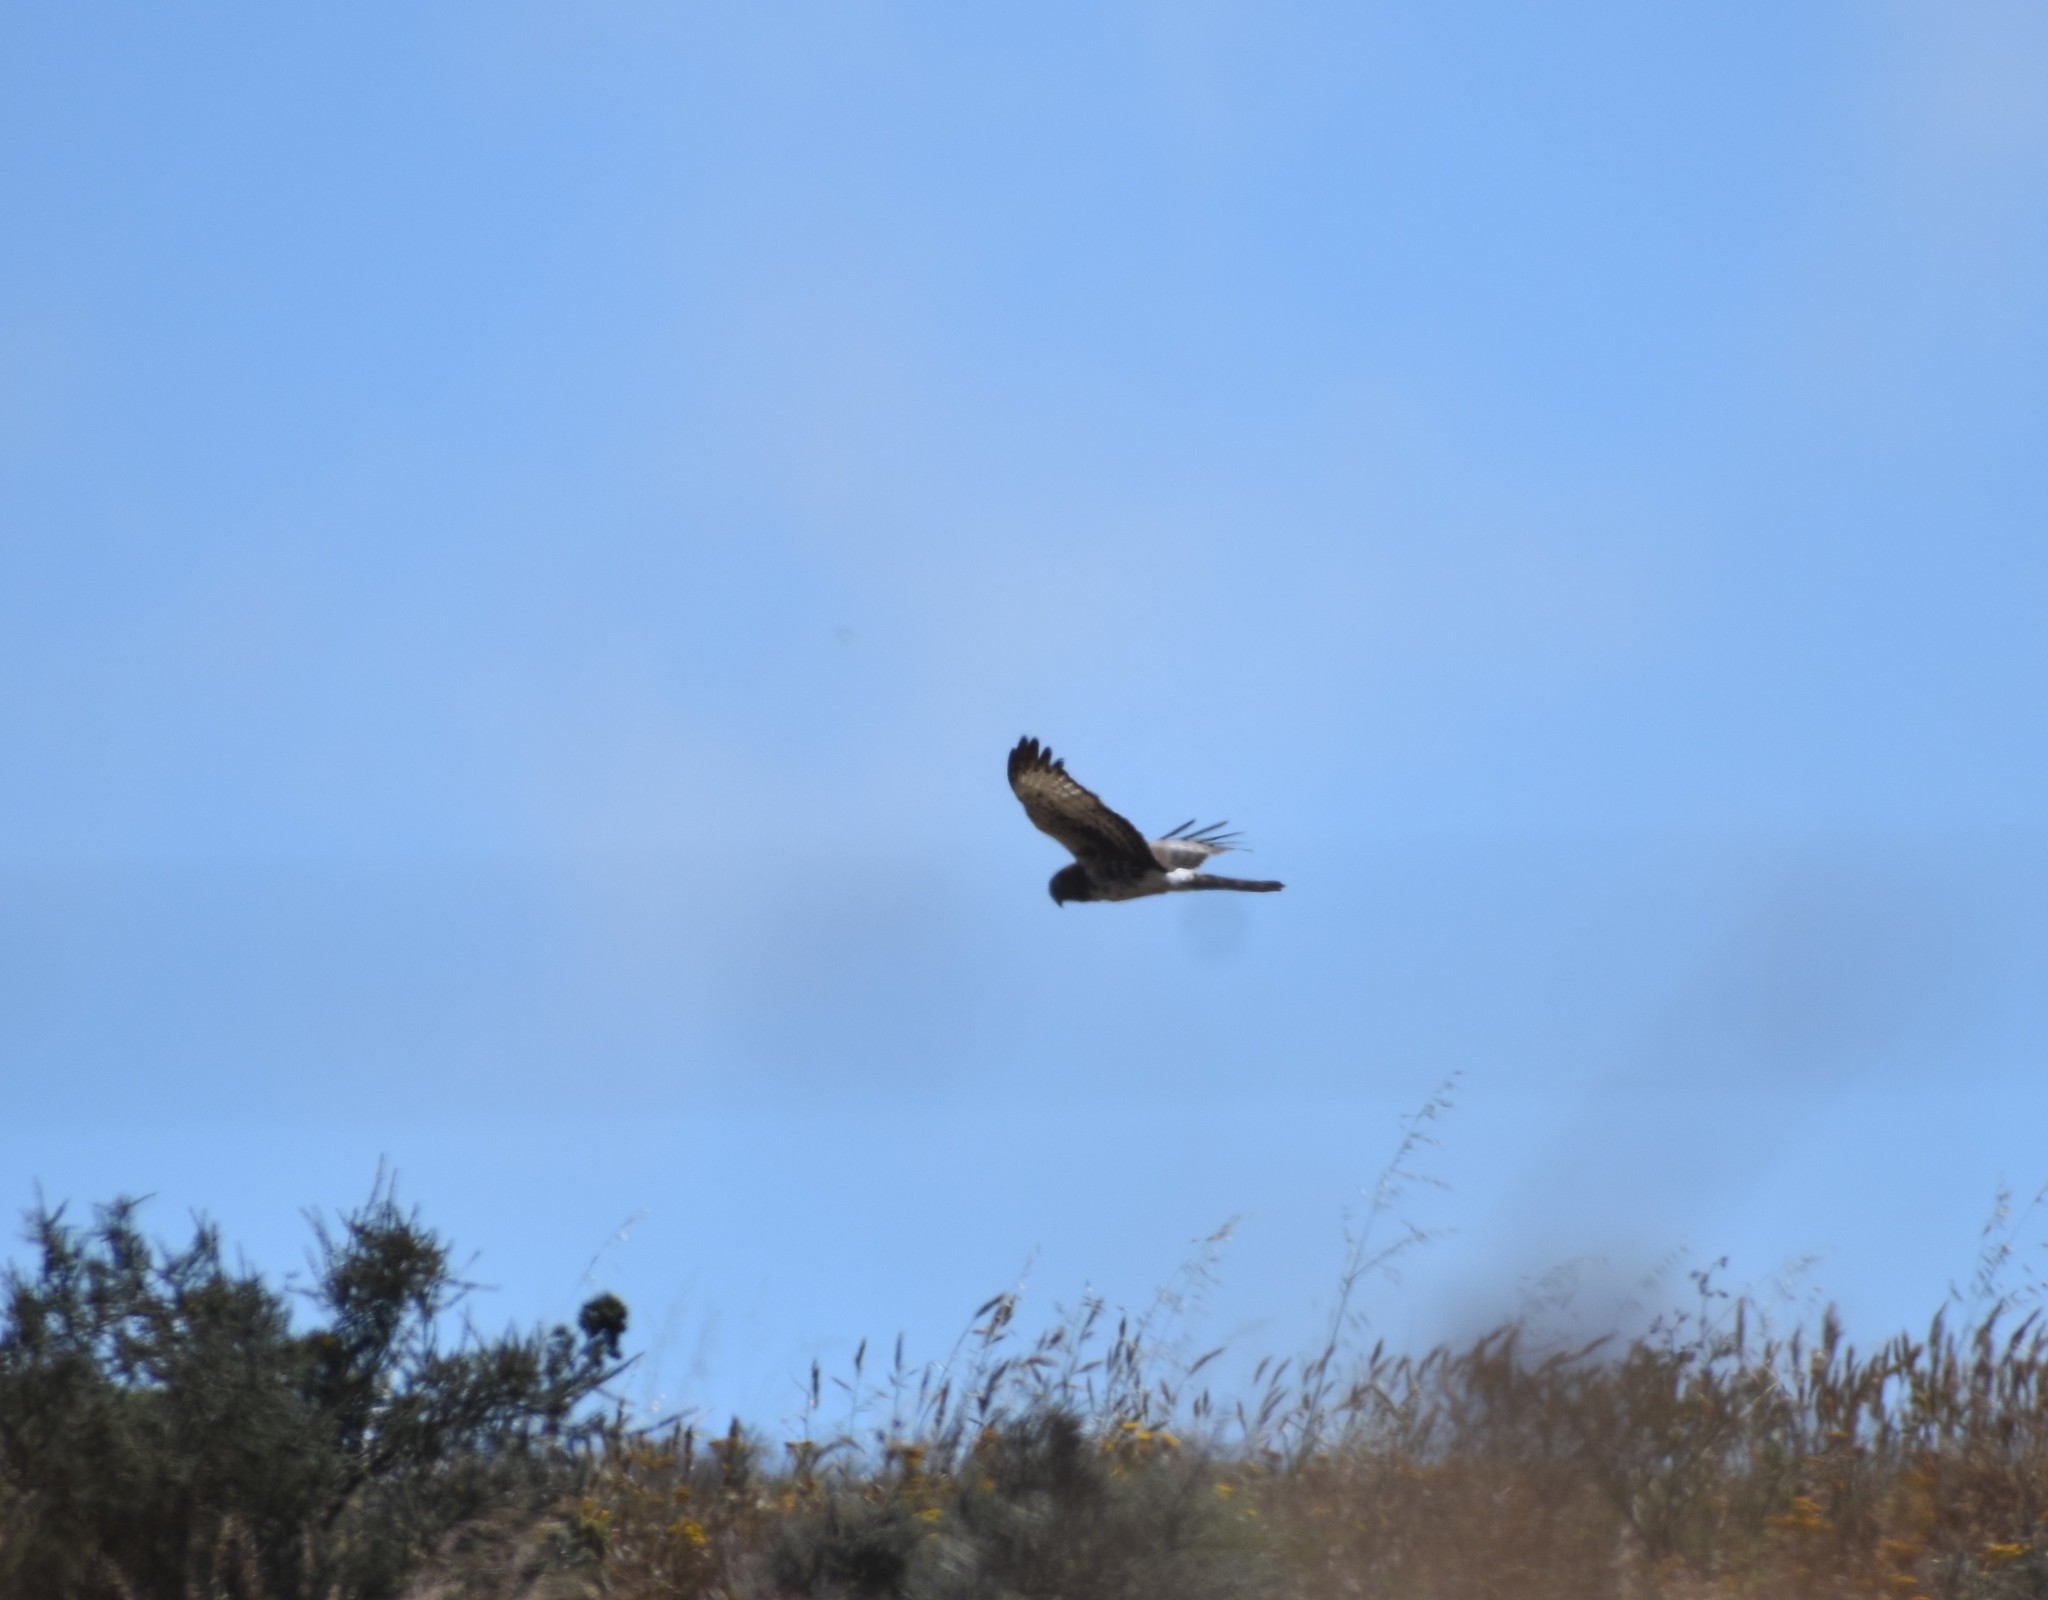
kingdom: Animalia
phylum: Chordata
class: Aves
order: Accipitriformes
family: Accipitridae
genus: Circus
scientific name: Circus maurus
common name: Black harrier
